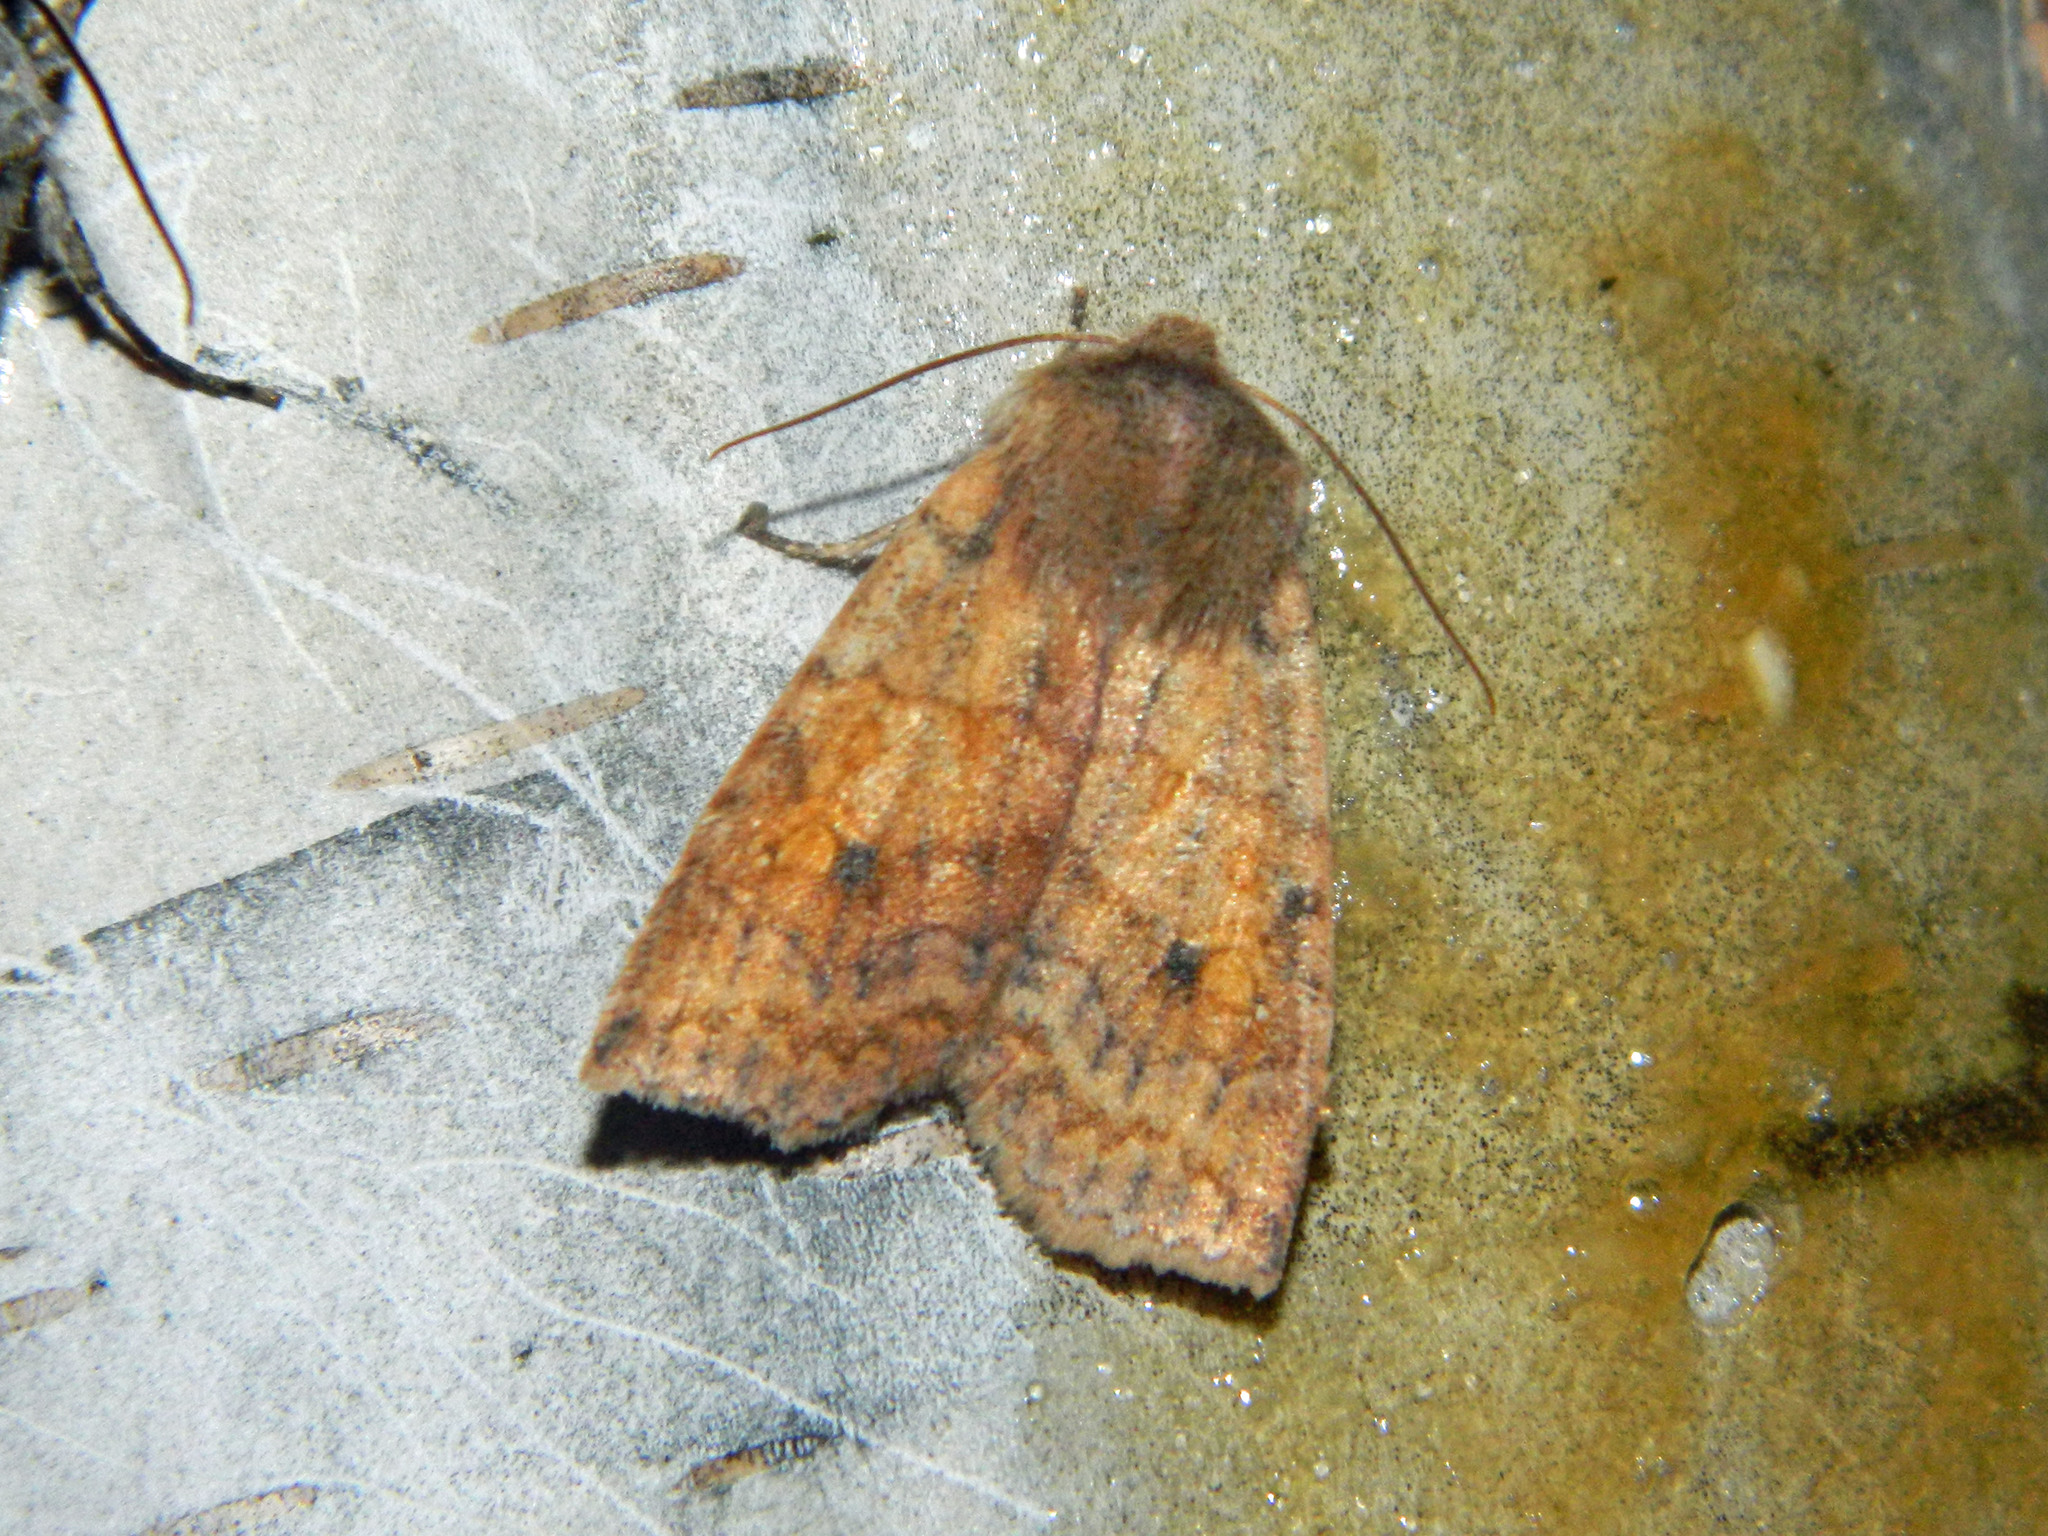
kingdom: Animalia
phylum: Arthropoda
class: Insecta
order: Lepidoptera
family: Noctuidae
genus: Eupsilia
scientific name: Eupsilia tristigmata
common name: Three-spotted sallow
